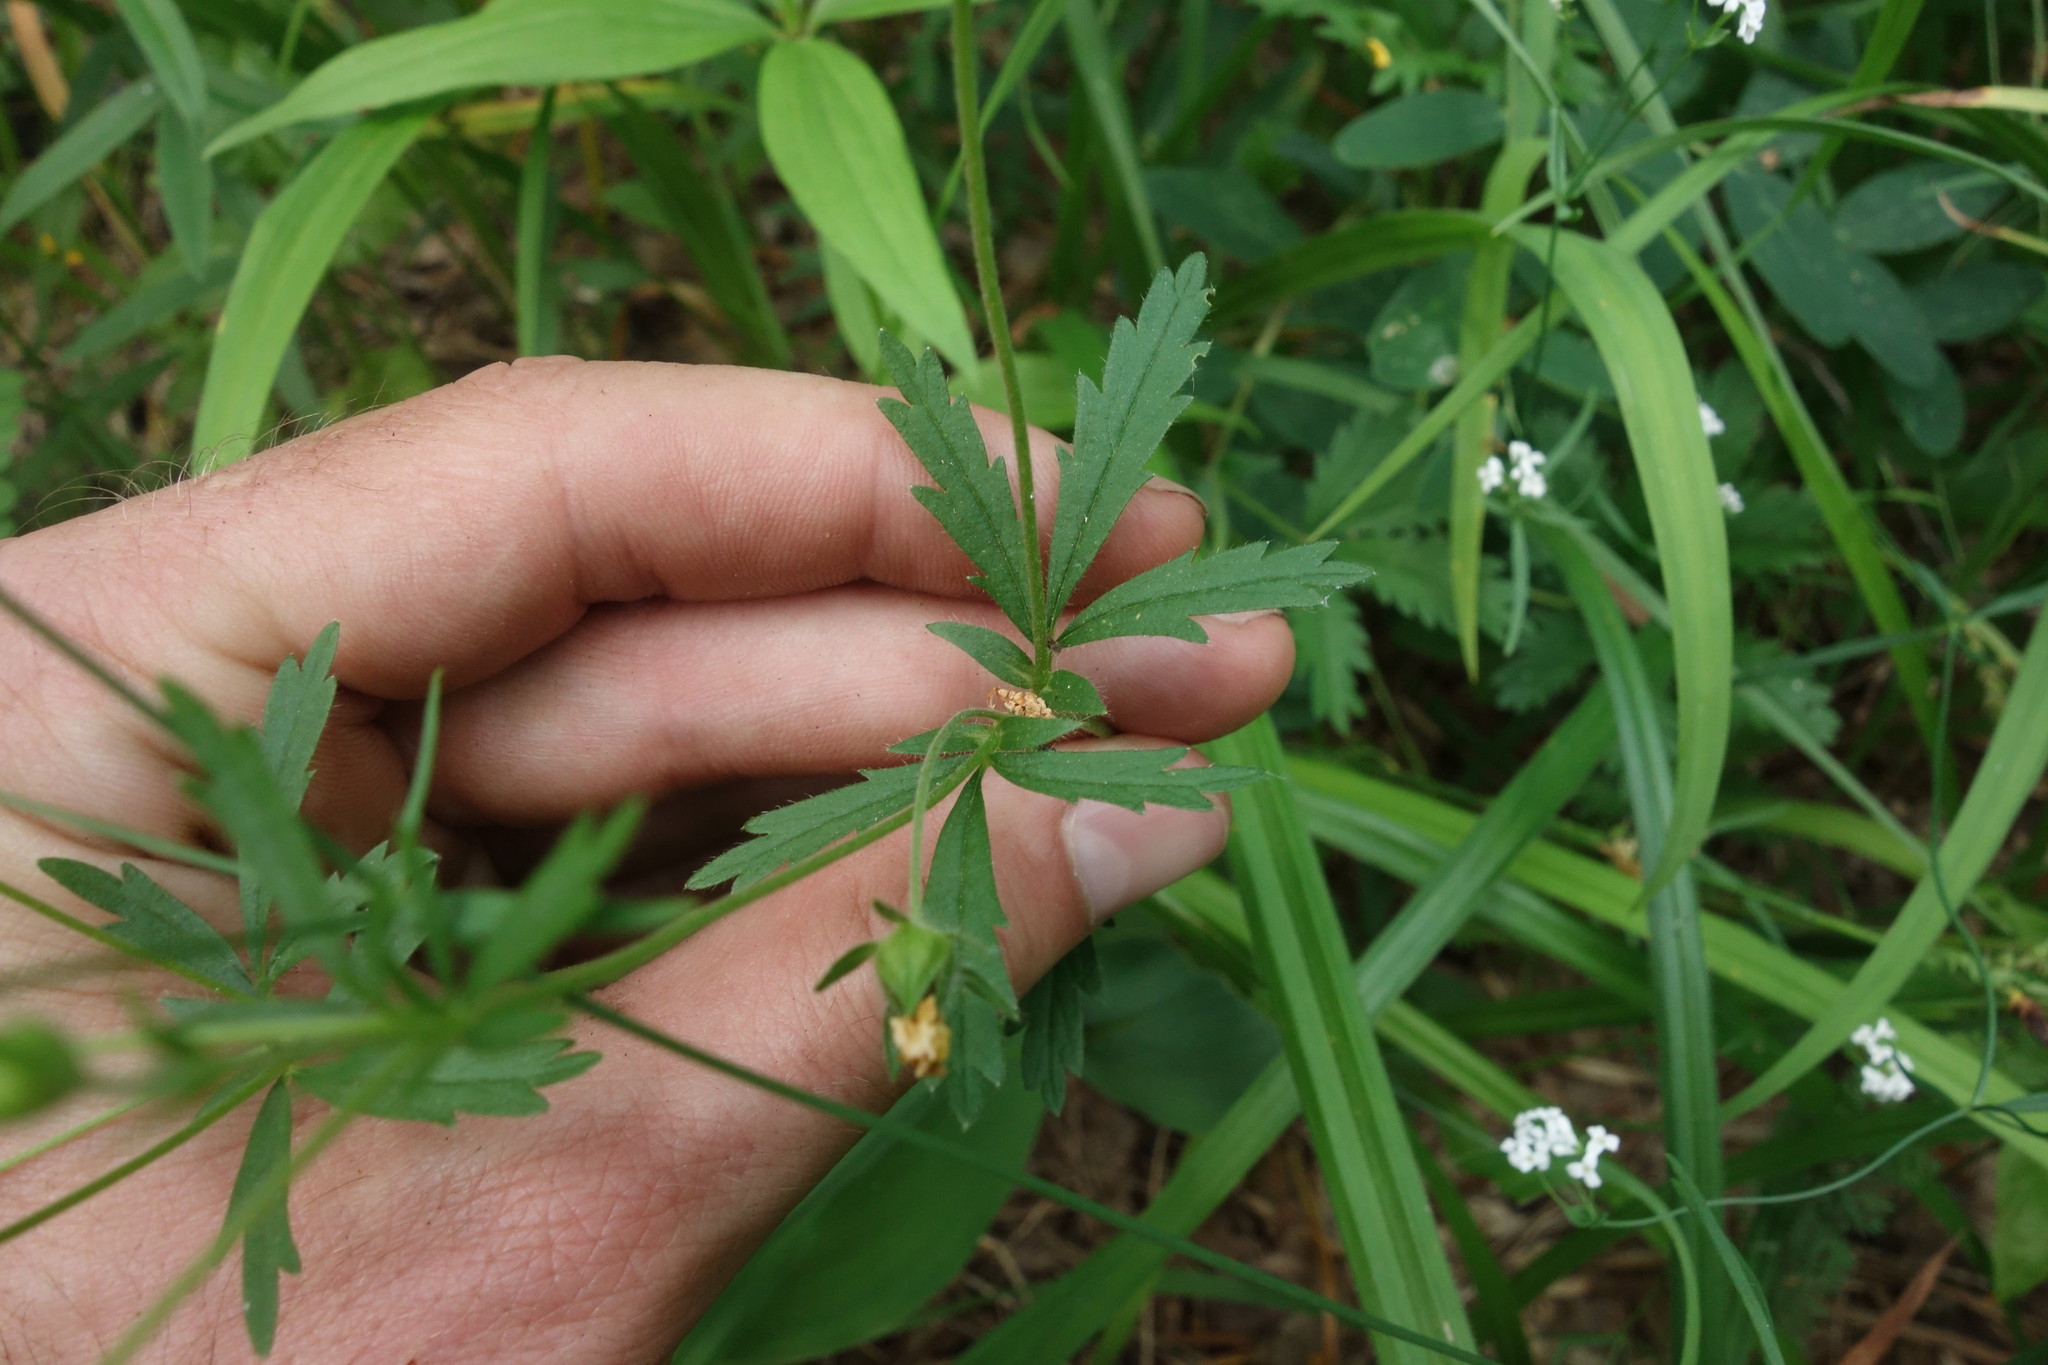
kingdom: Plantae
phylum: Tracheophyta
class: Magnoliopsida
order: Rosales
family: Rosaceae
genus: Potentilla
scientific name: Potentilla thuringiaca
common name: European cinquefoil
